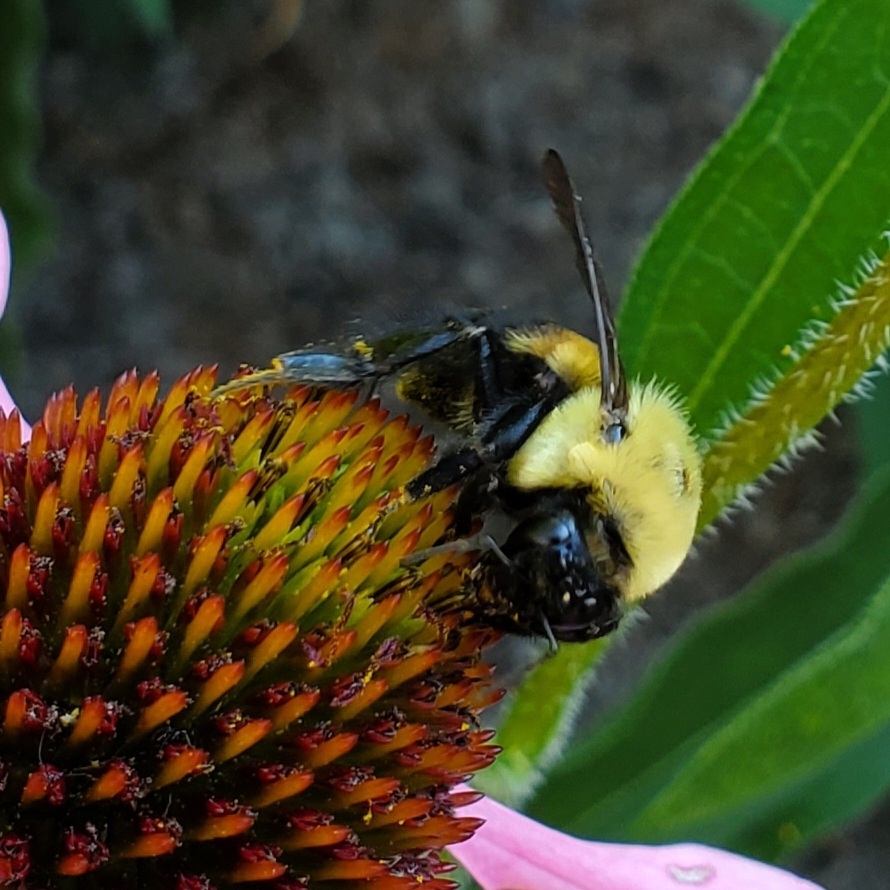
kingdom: Animalia
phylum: Arthropoda
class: Insecta
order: Hymenoptera
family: Apidae
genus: Bombus
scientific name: Bombus griseocollis
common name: Brown-belted bumble bee
